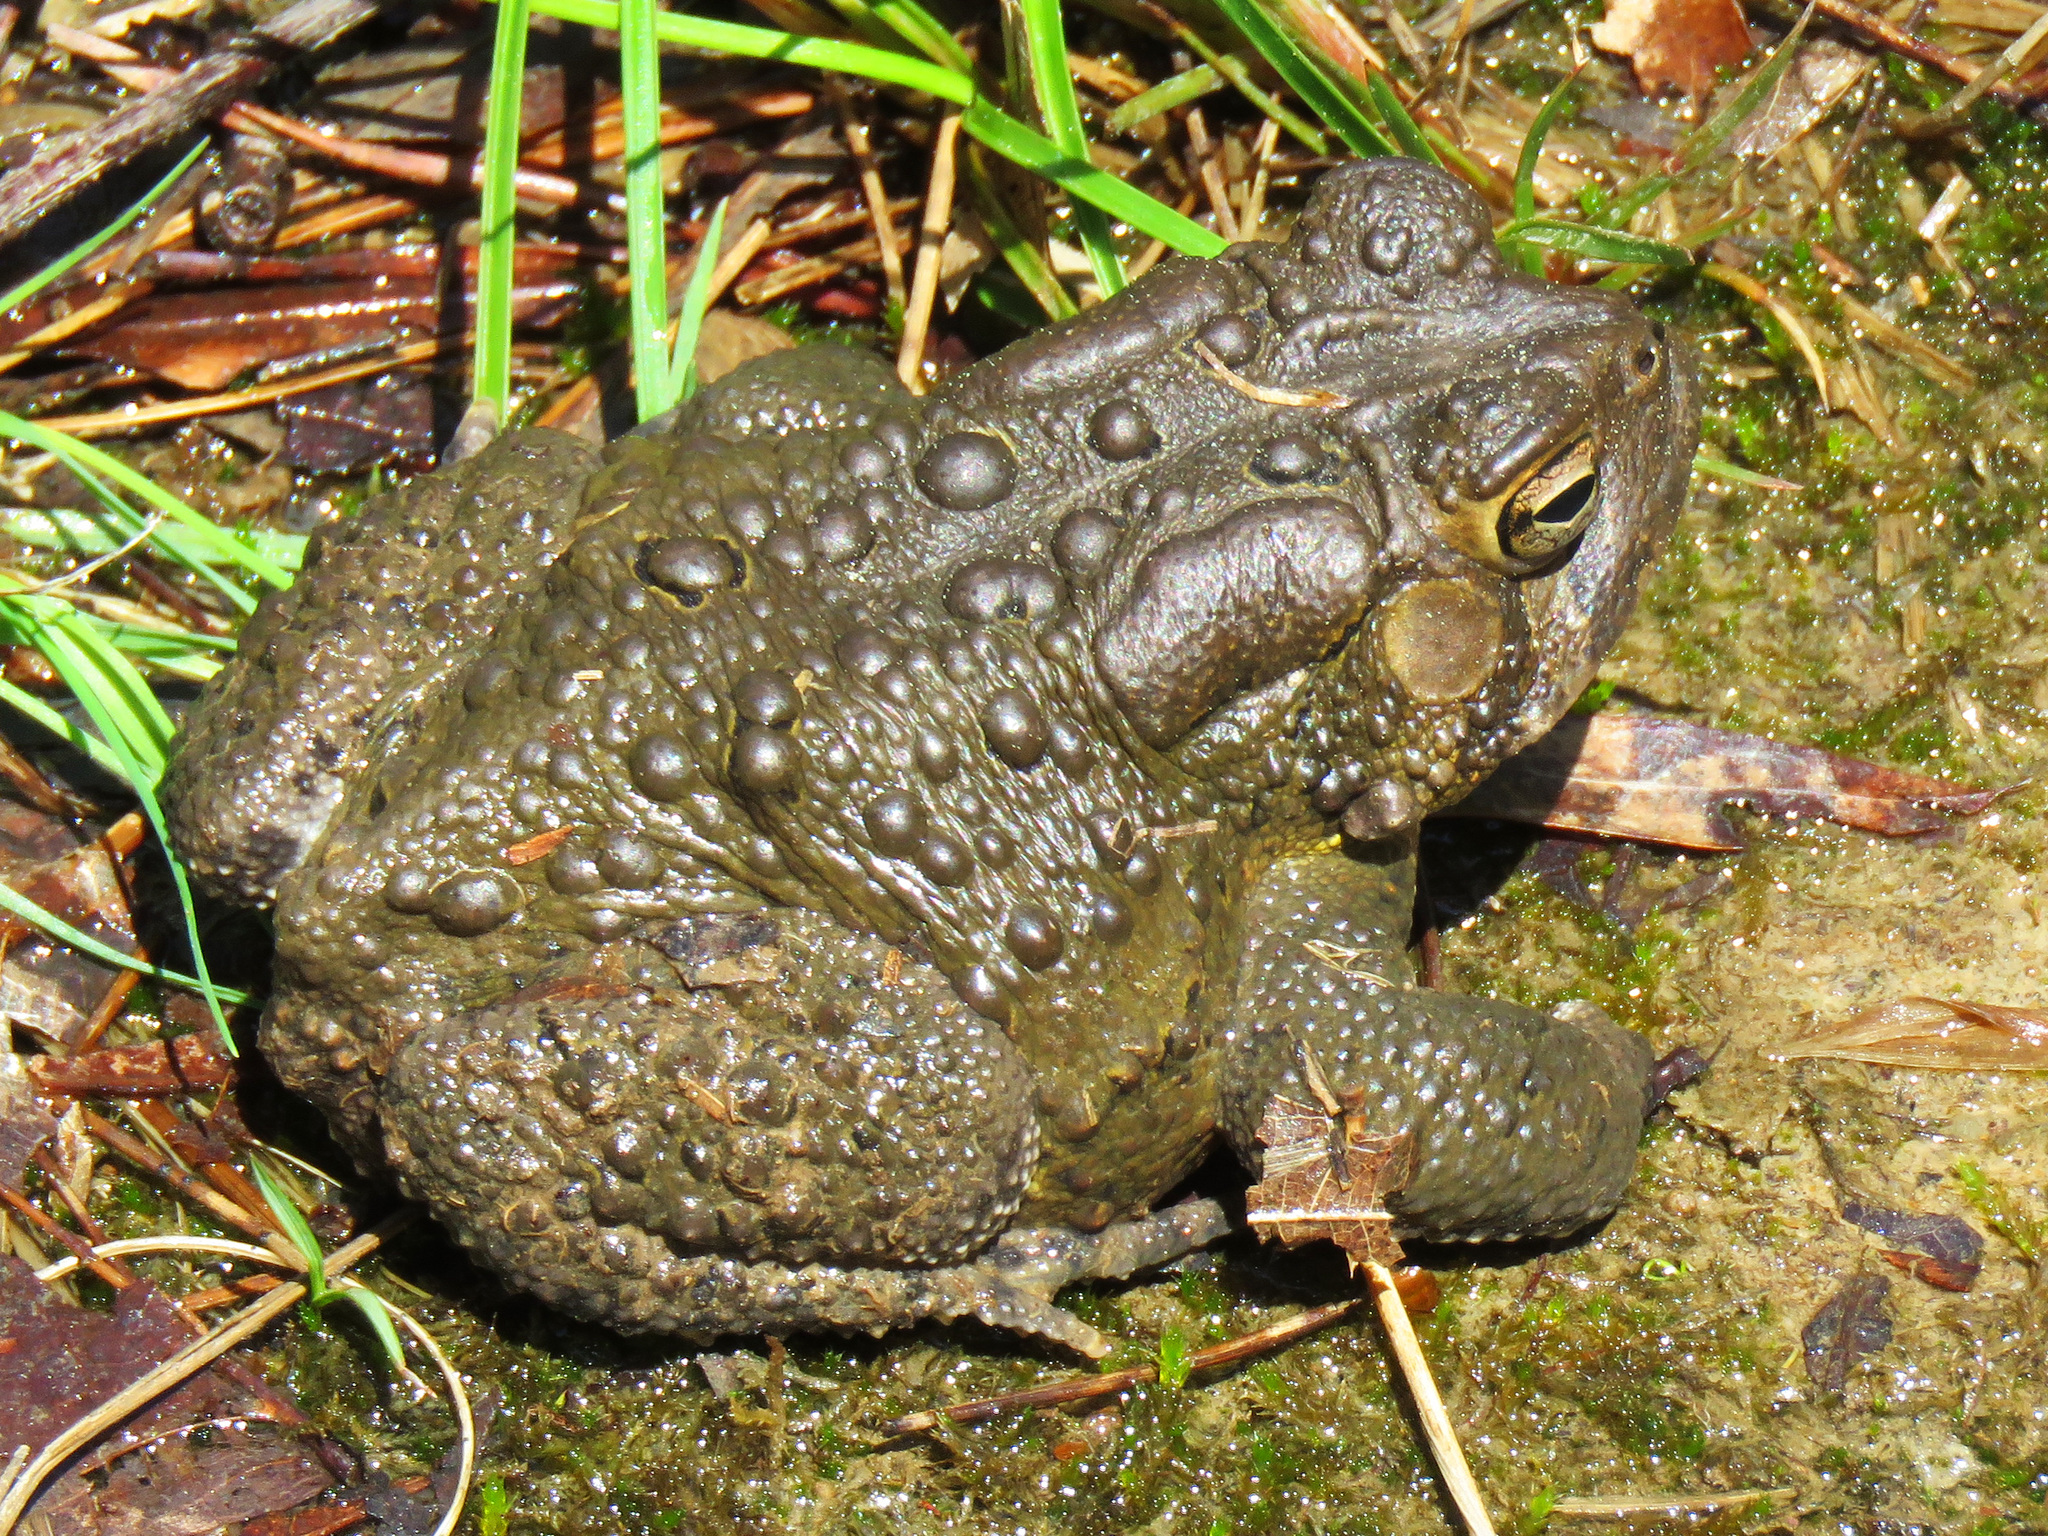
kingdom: Animalia
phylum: Chordata
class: Amphibia
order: Anura
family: Bufonidae
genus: Anaxyrus
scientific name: Anaxyrus americanus
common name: American toad
